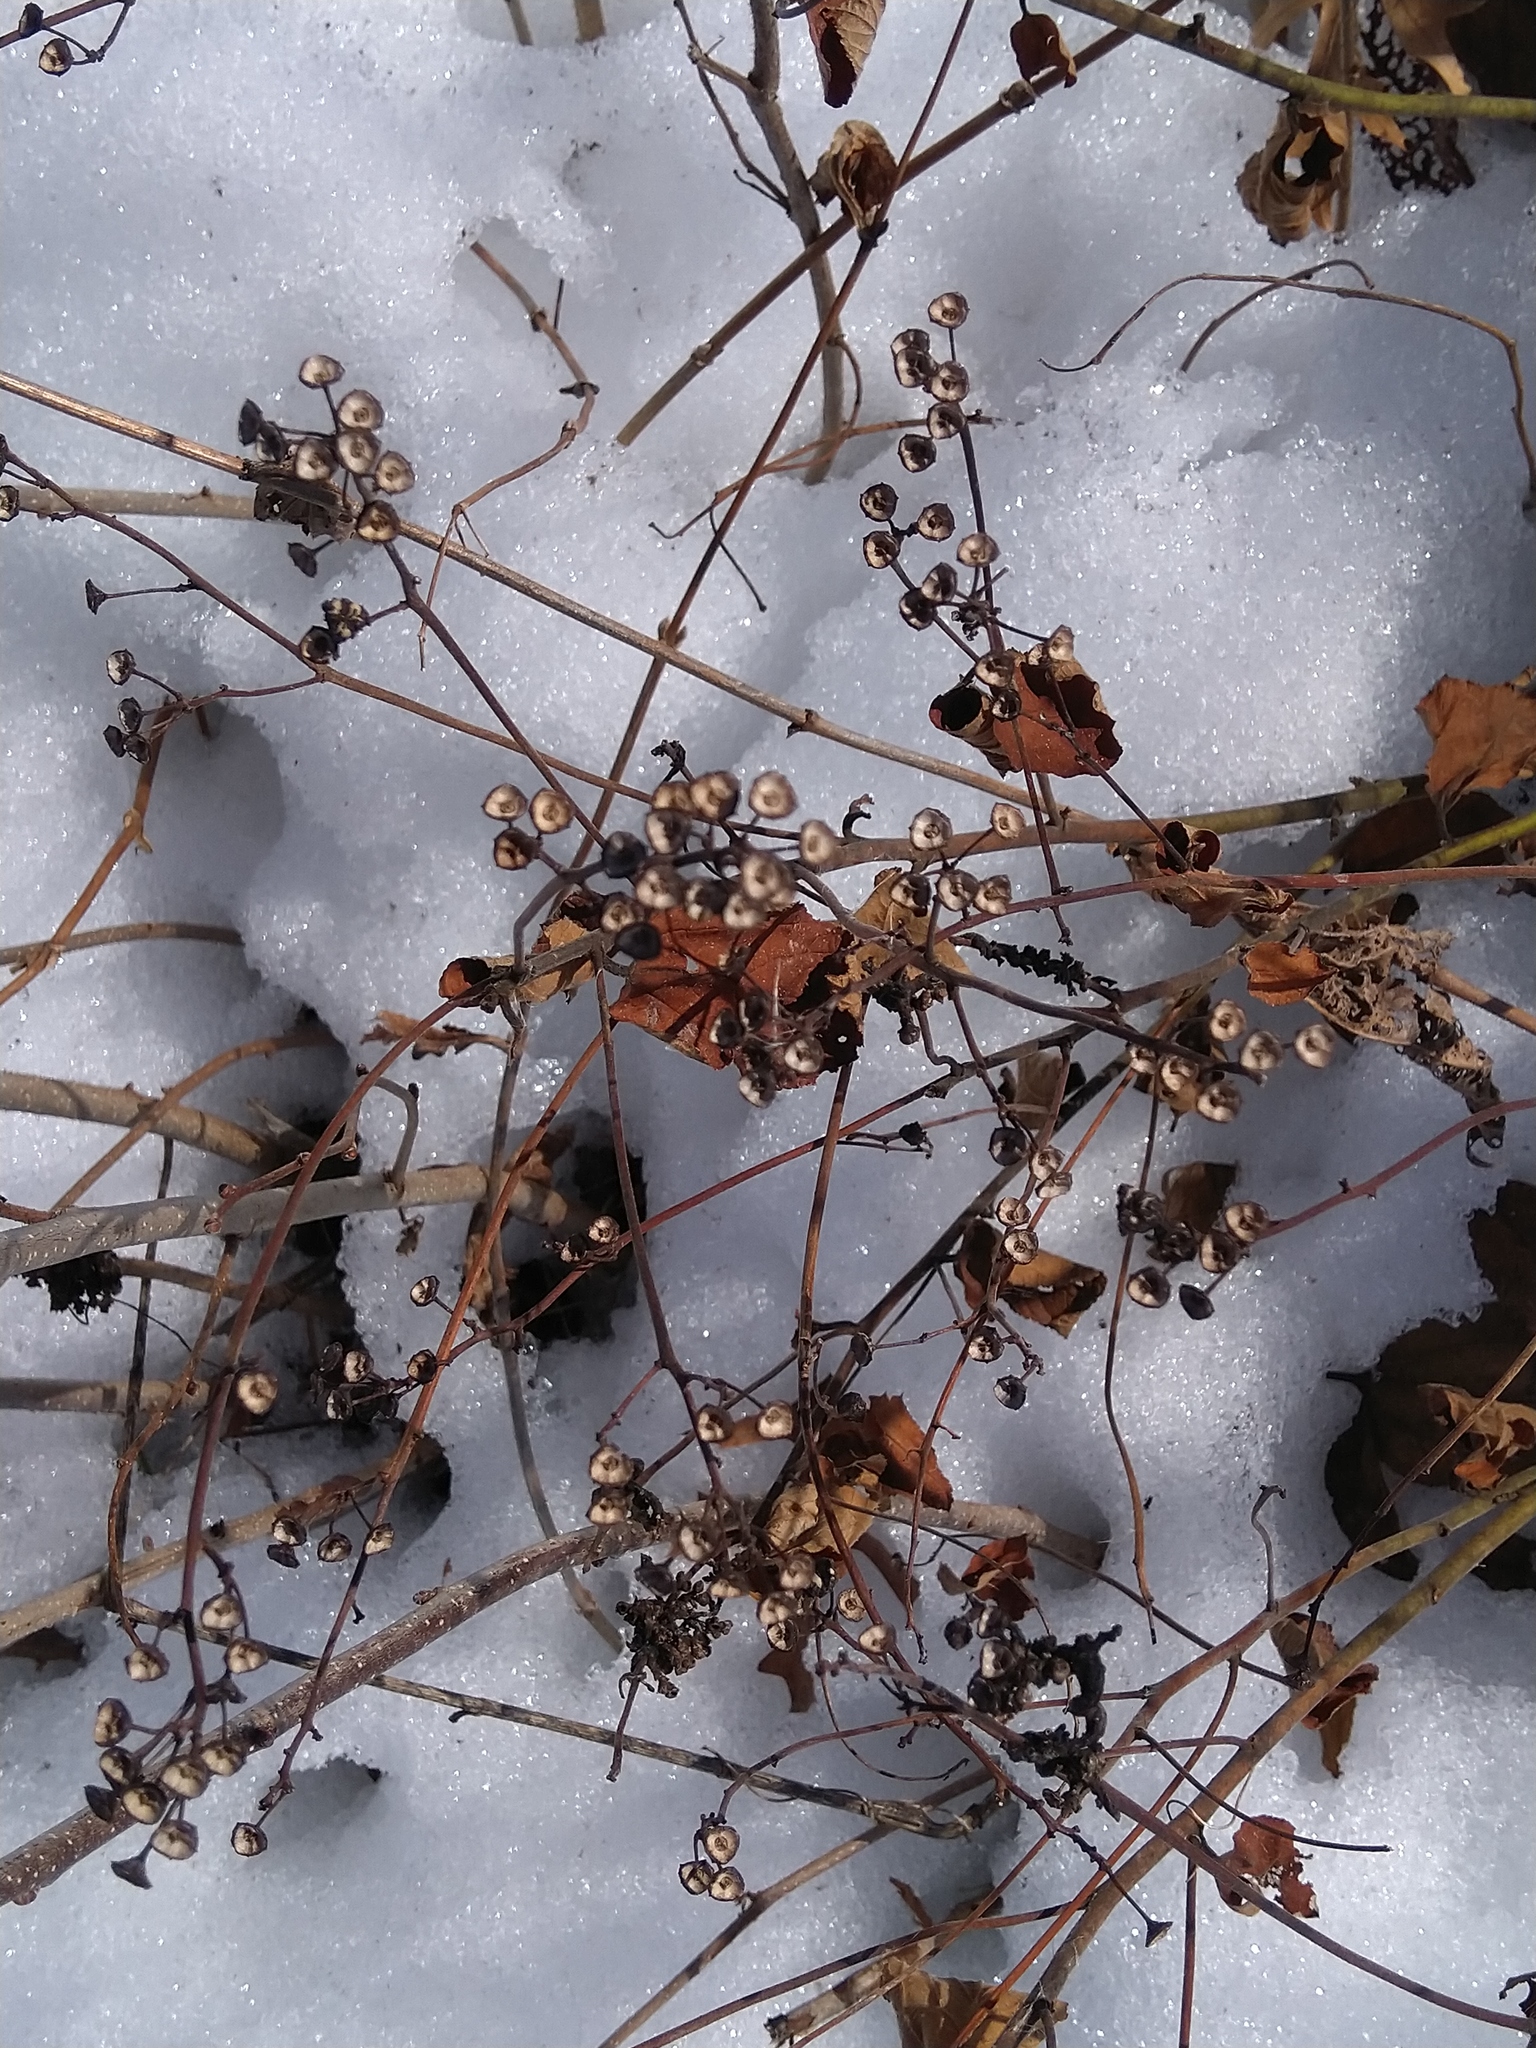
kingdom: Plantae
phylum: Tracheophyta
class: Magnoliopsida
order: Rosales
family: Rhamnaceae
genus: Ceanothus
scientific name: Ceanothus americanus
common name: Redroot
